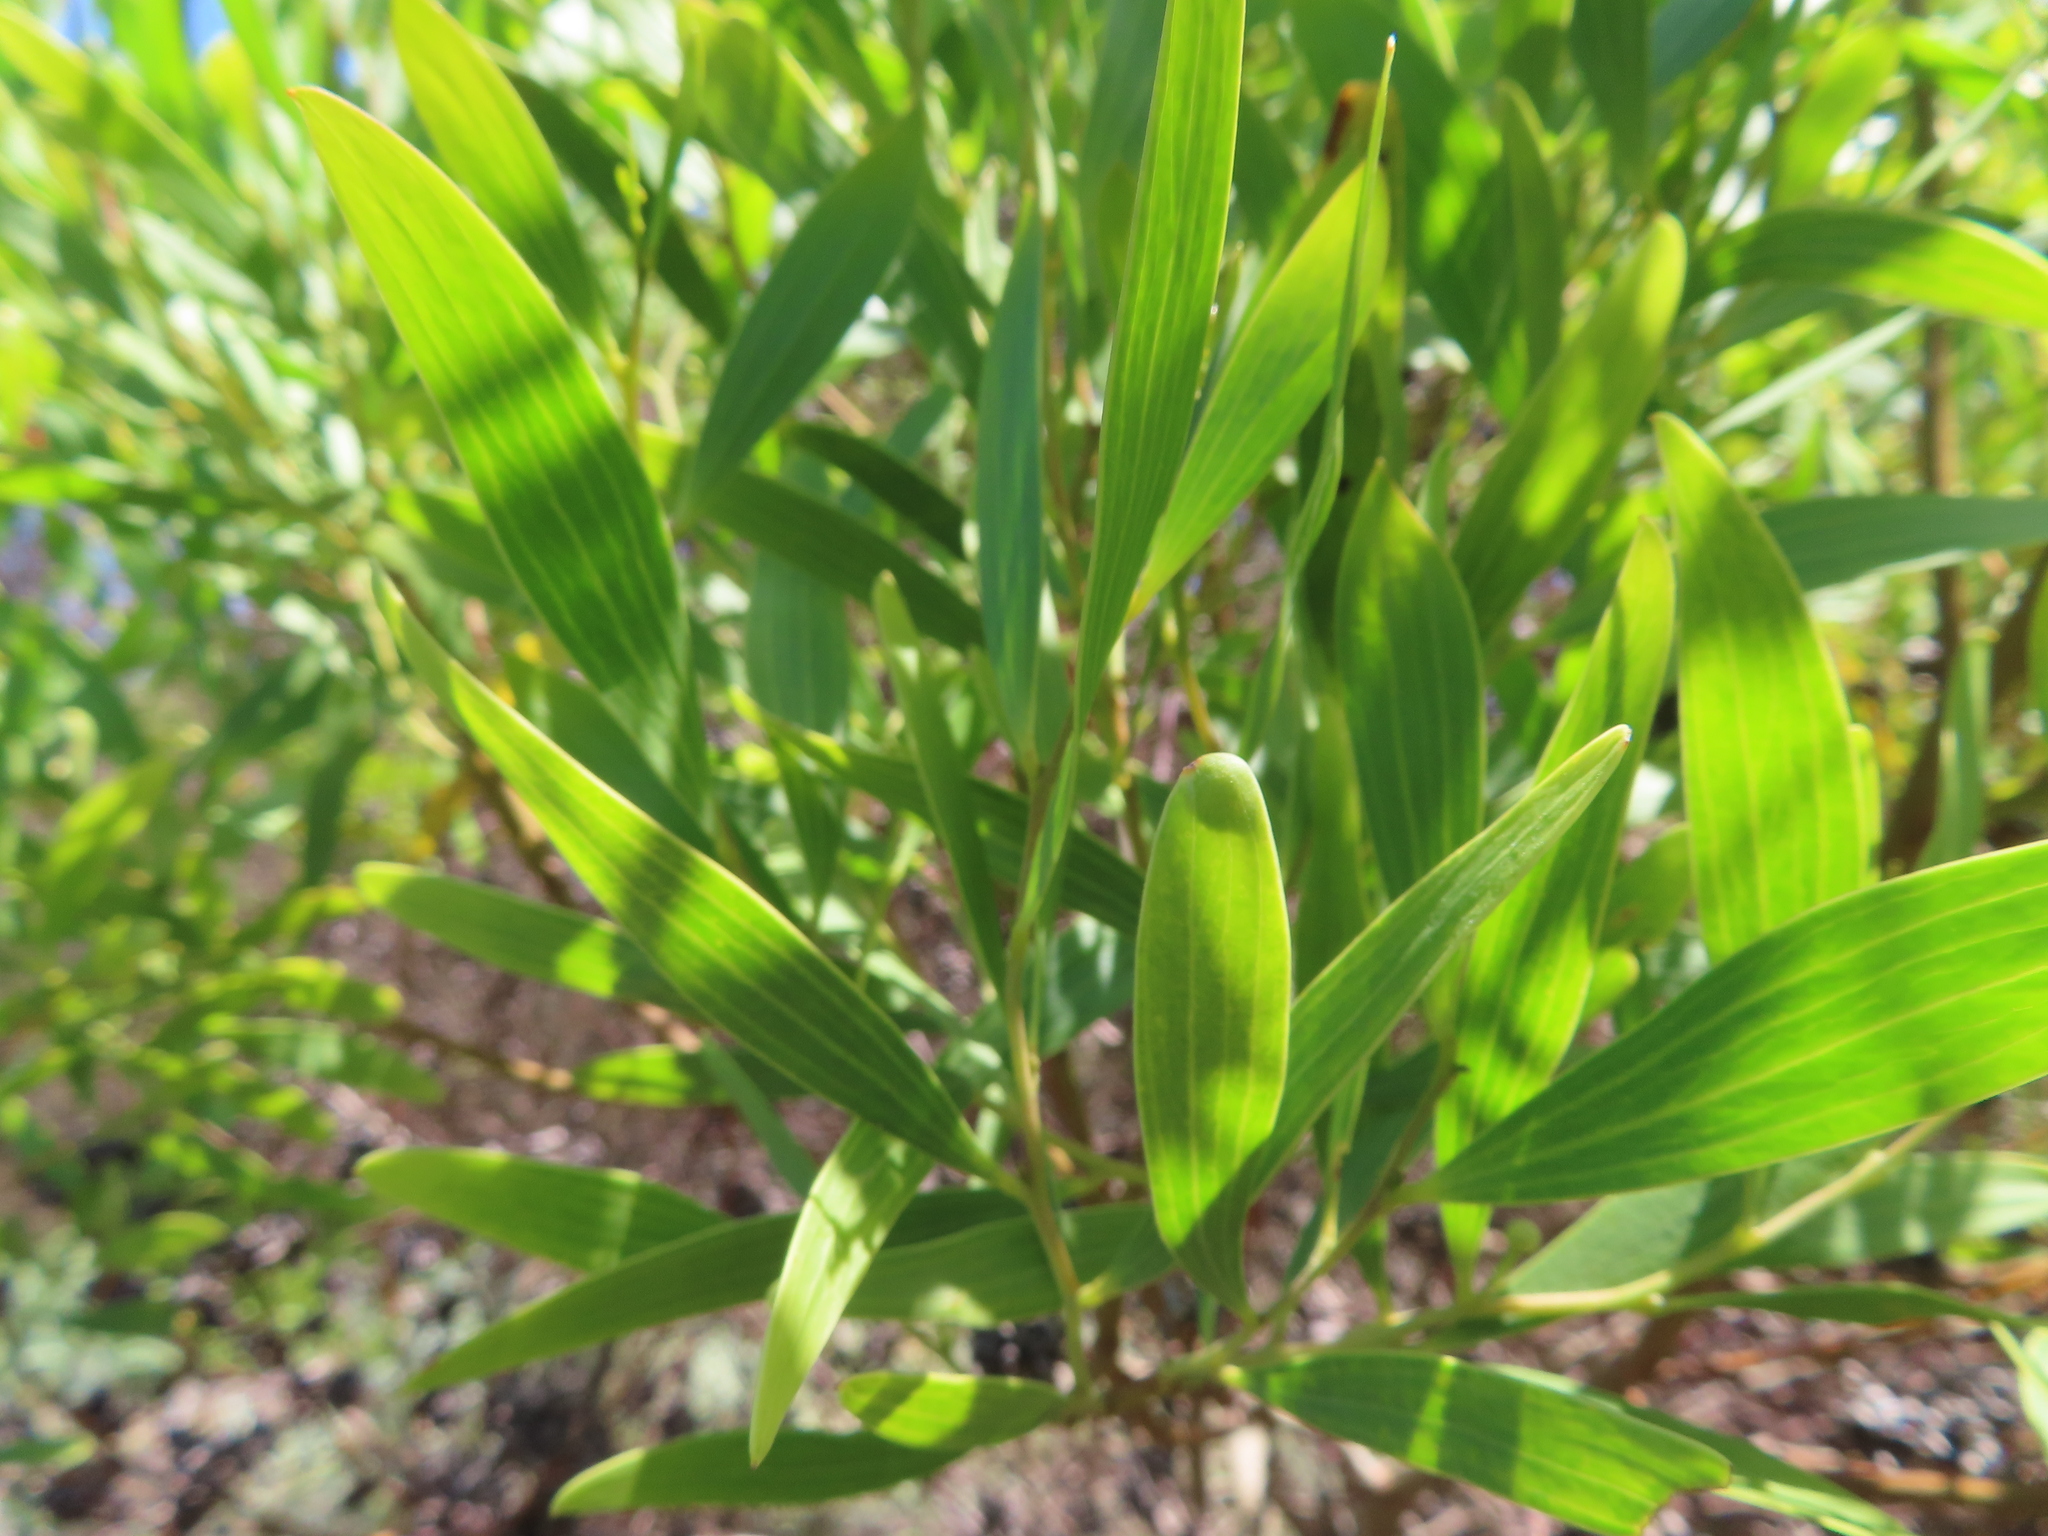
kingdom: Plantae
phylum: Tracheophyta
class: Magnoliopsida
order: Fabales
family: Fabaceae
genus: Acacia
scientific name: Acacia cyclops
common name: Coastal wattle
